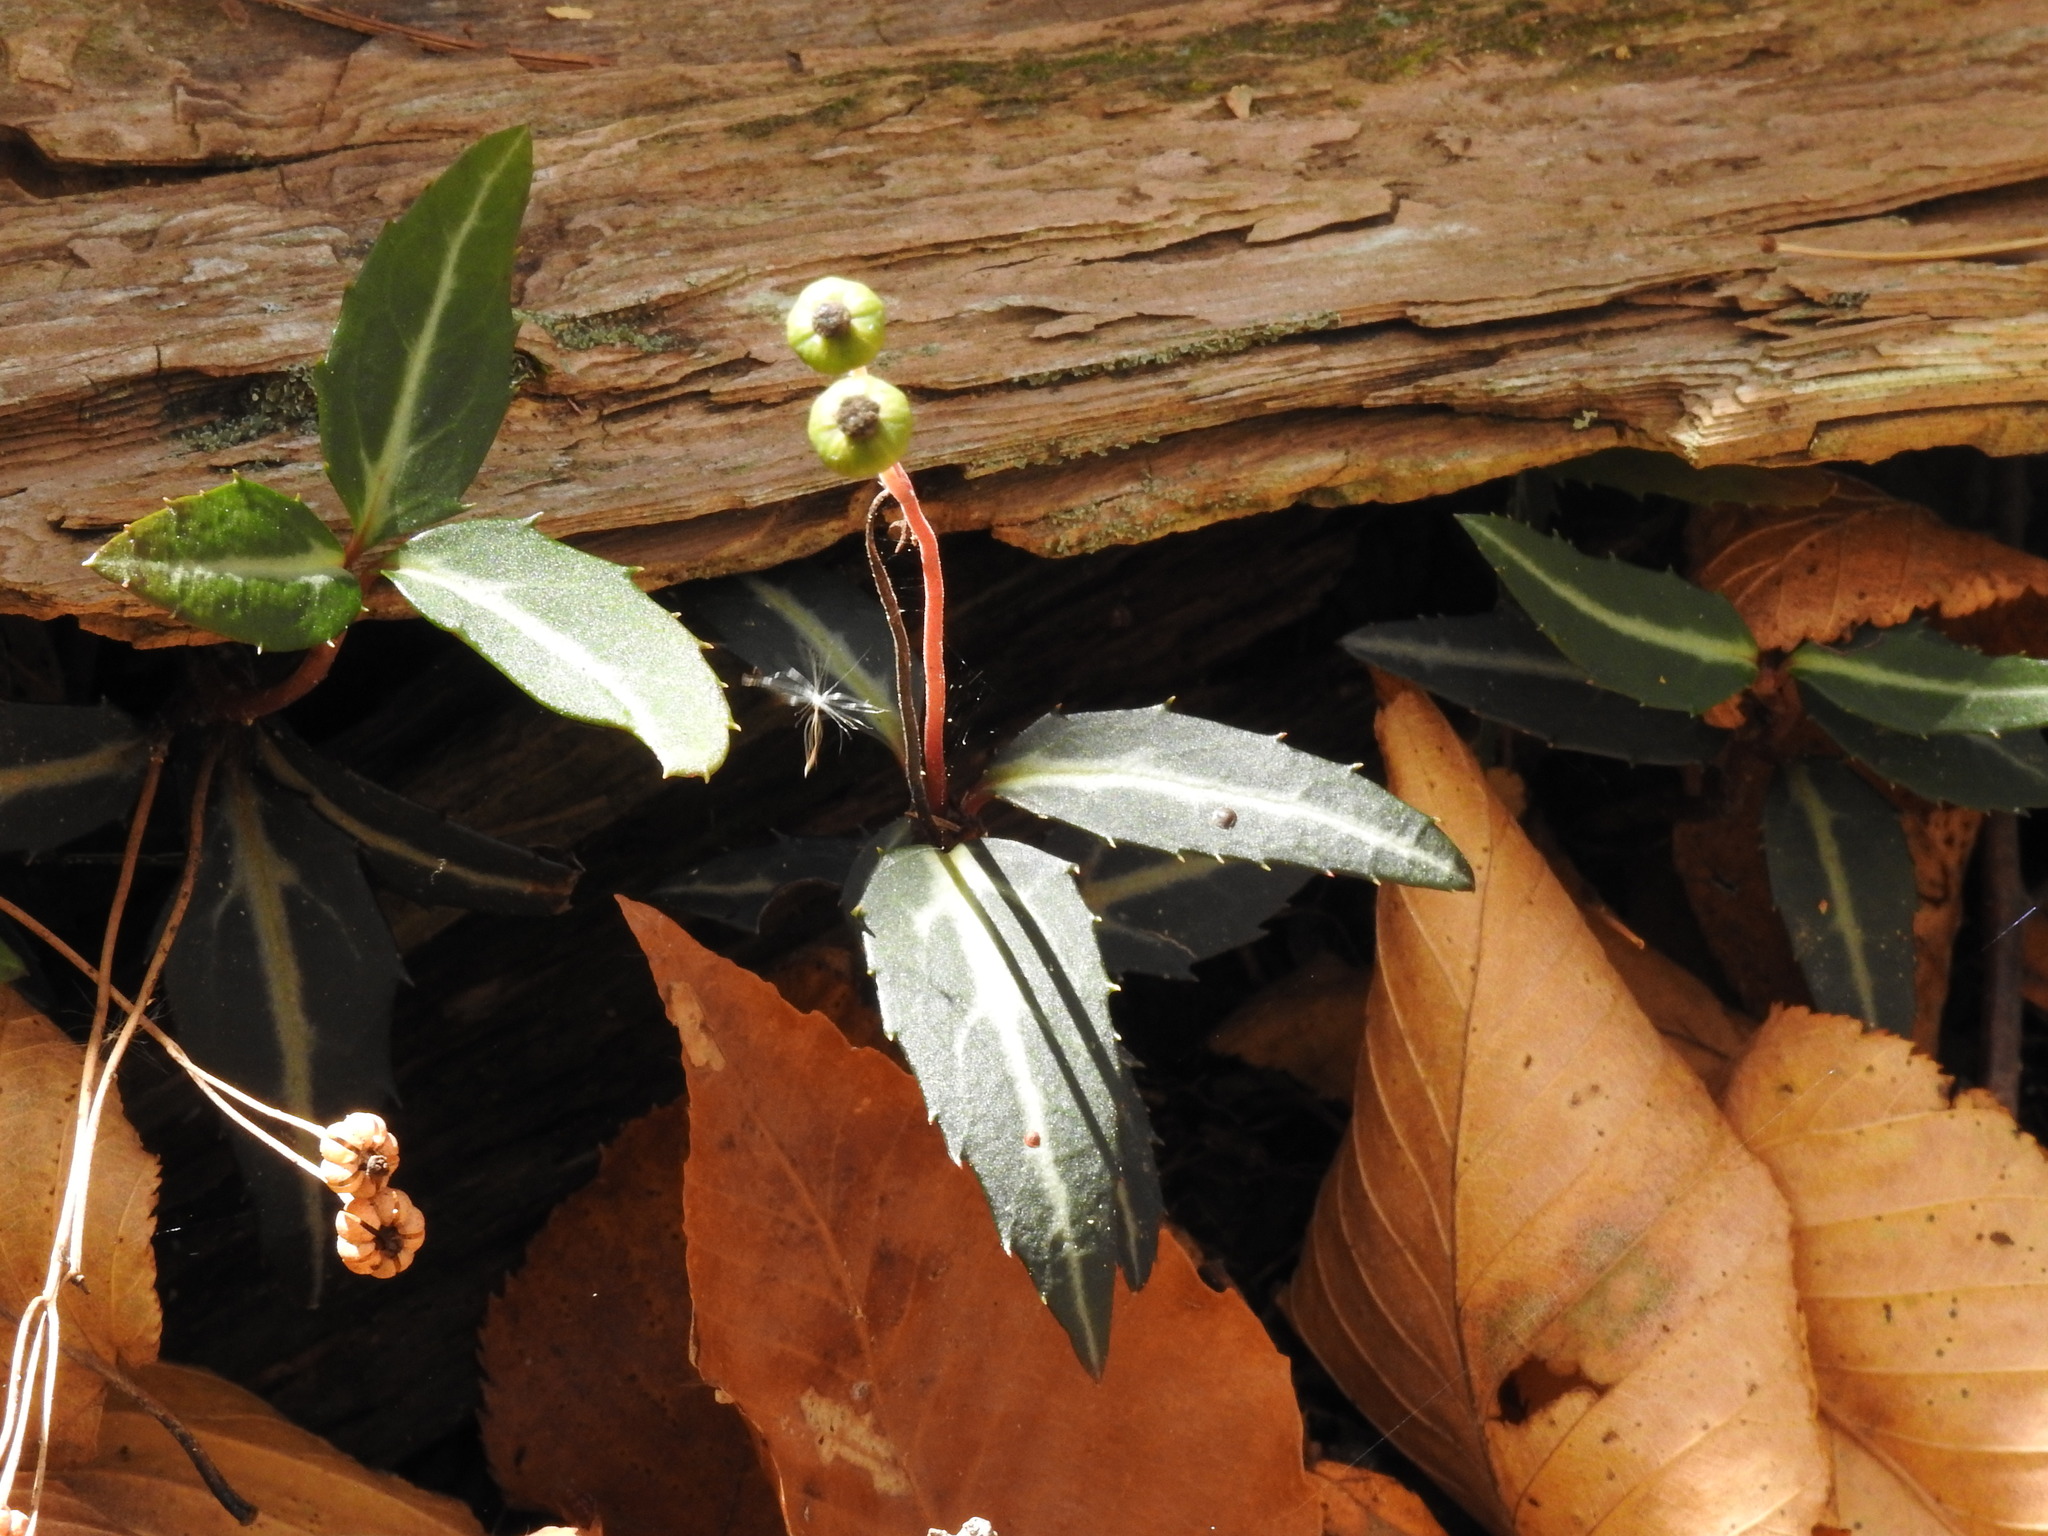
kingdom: Plantae
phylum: Tracheophyta
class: Magnoliopsida
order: Ericales
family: Ericaceae
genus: Chimaphila
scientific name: Chimaphila maculata
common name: Spotted pipsissewa
